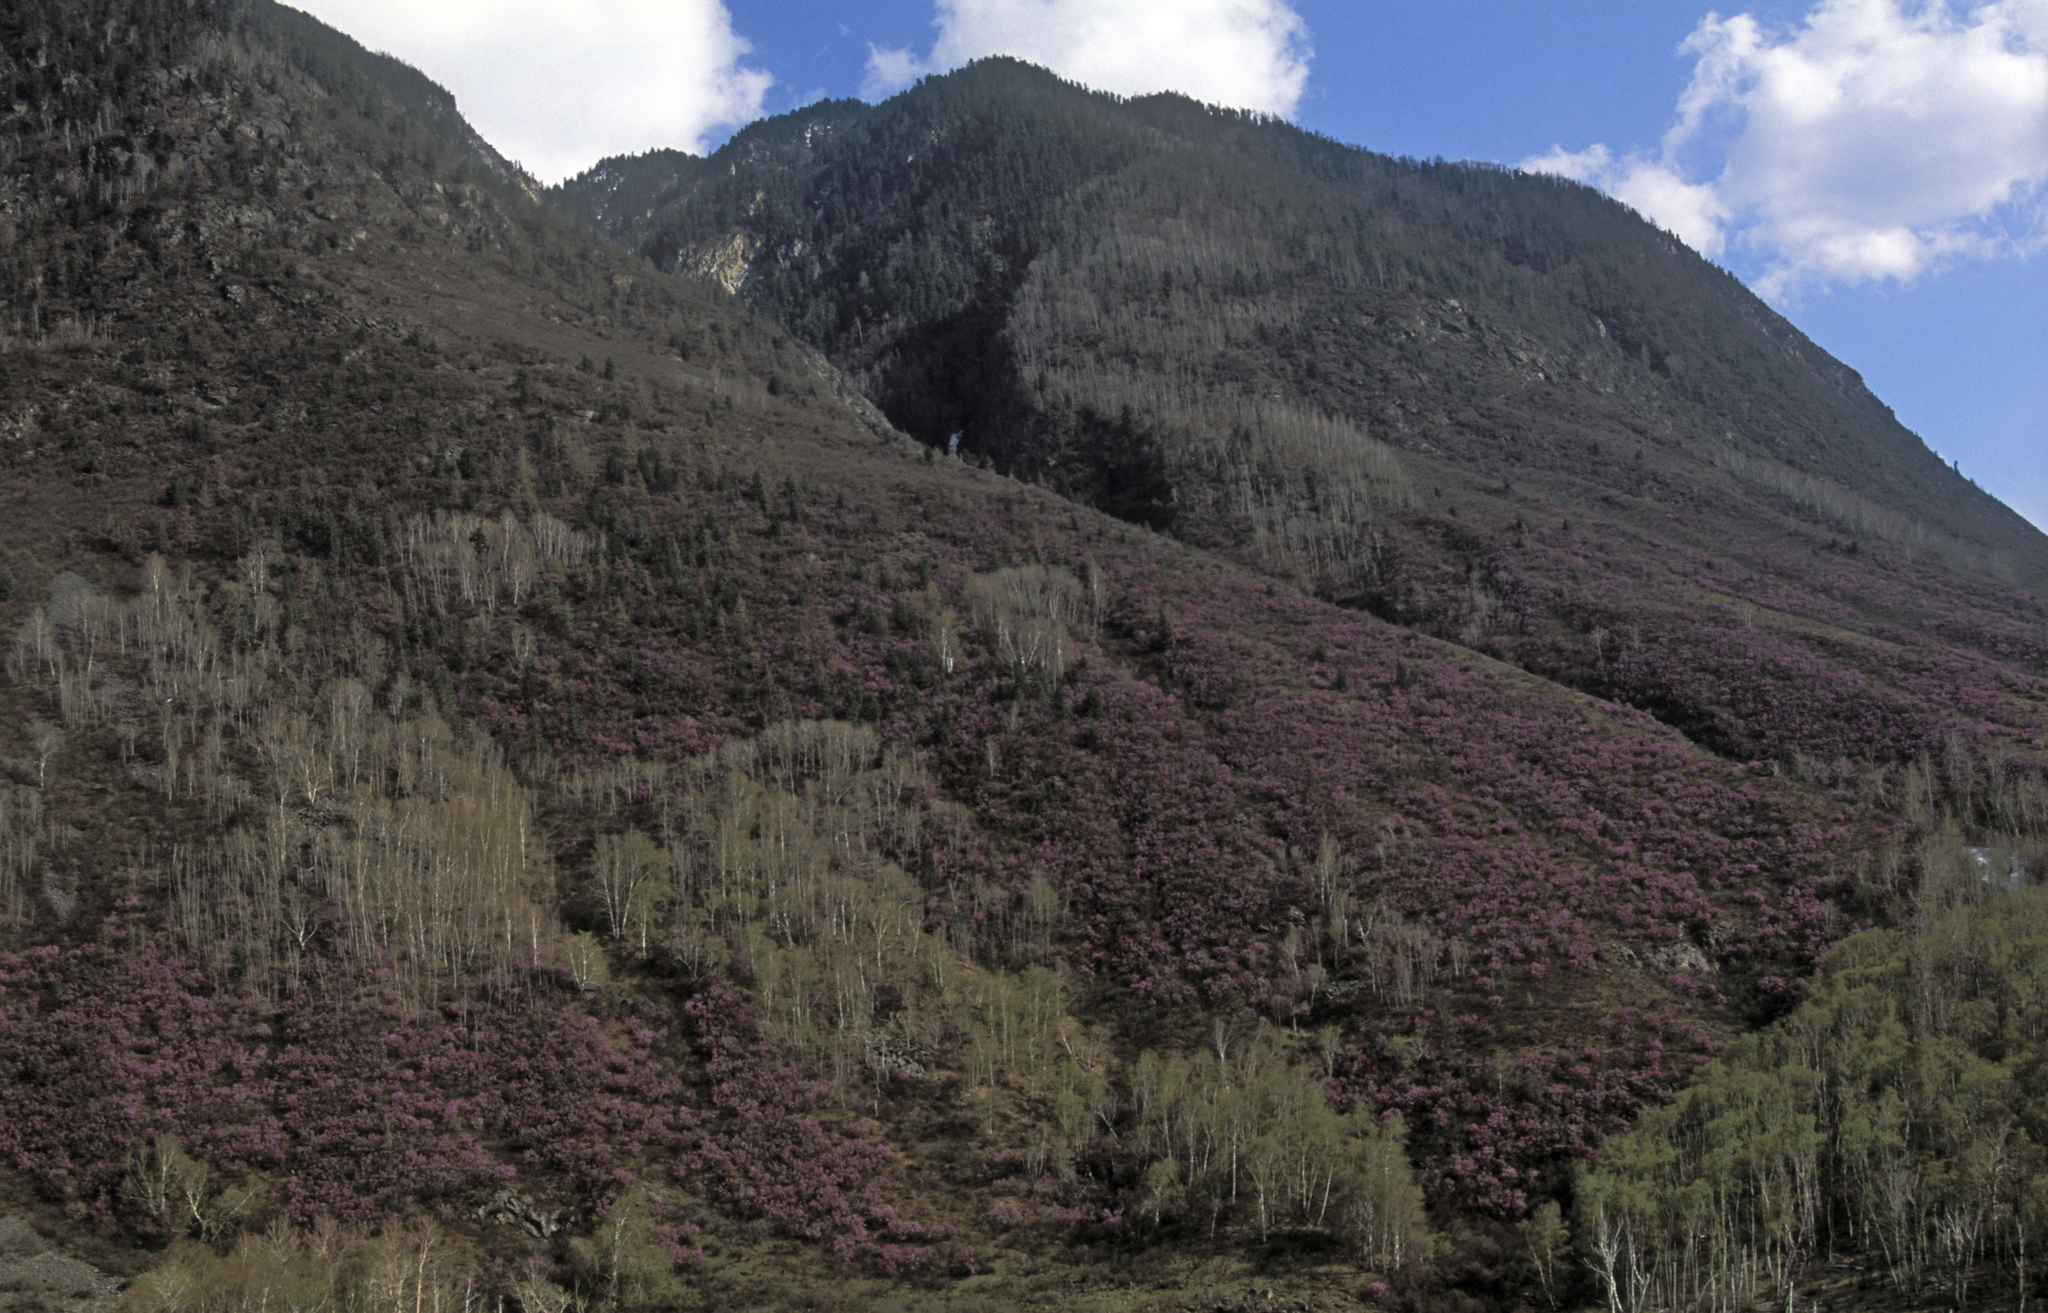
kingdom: Plantae
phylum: Tracheophyta
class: Magnoliopsida
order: Ericales
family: Ericaceae
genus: Rhododendron
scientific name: Rhododendron dauricum
